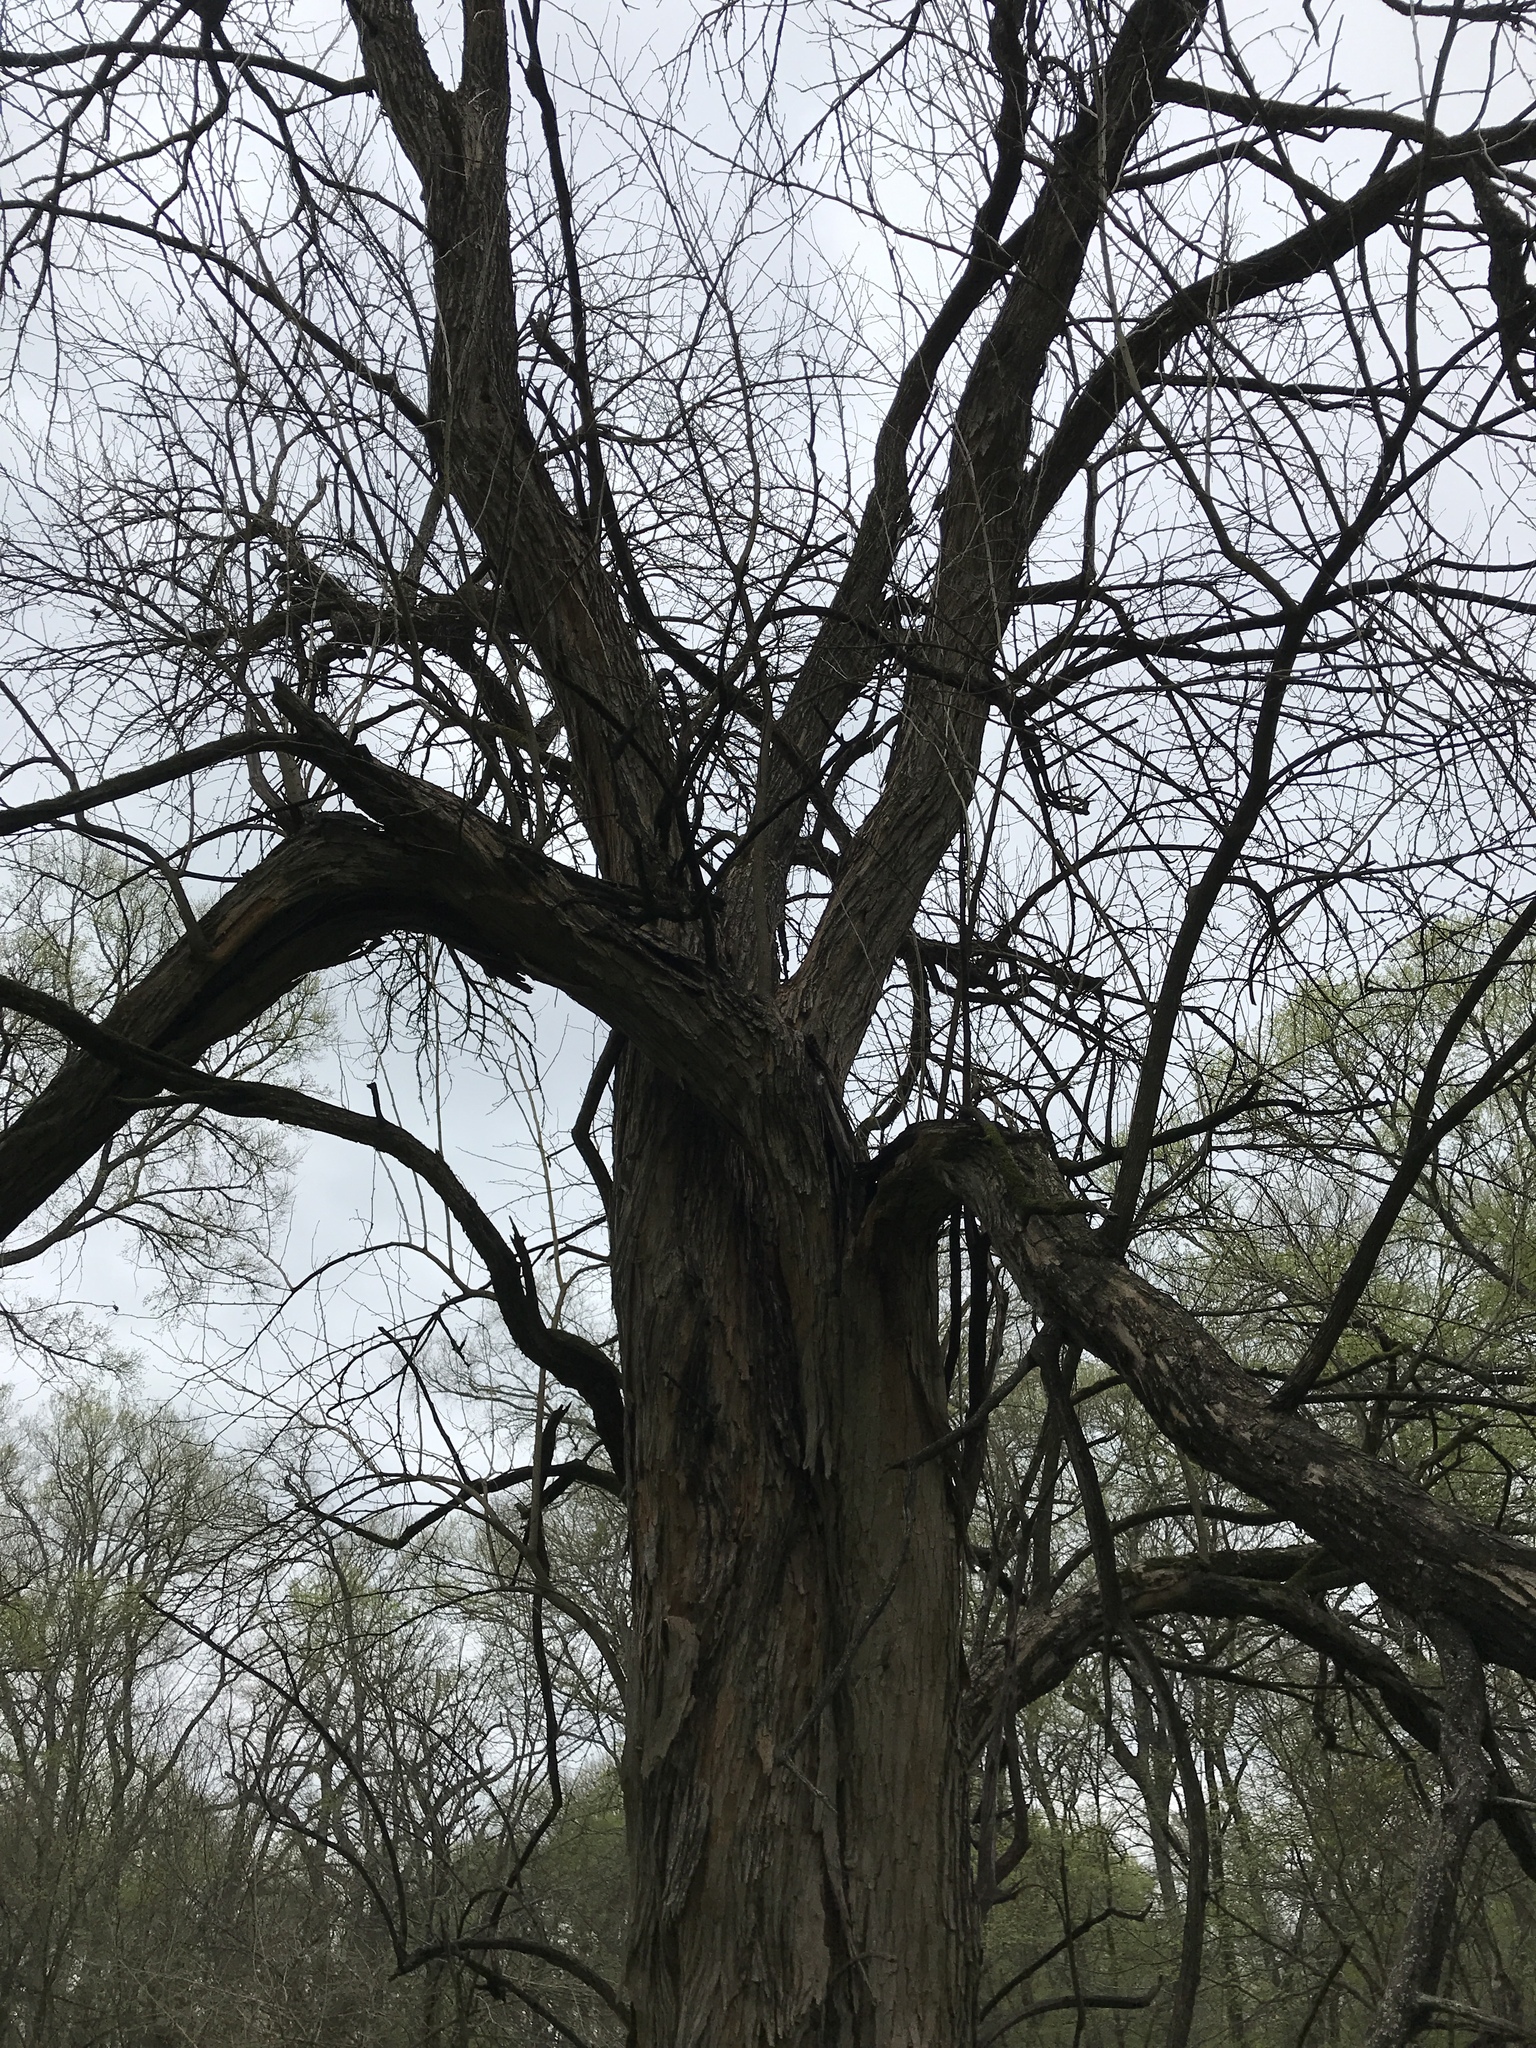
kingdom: Plantae
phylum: Tracheophyta
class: Magnoliopsida
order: Rosales
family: Moraceae
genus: Maclura
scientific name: Maclura pomifera
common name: Osage-orange
